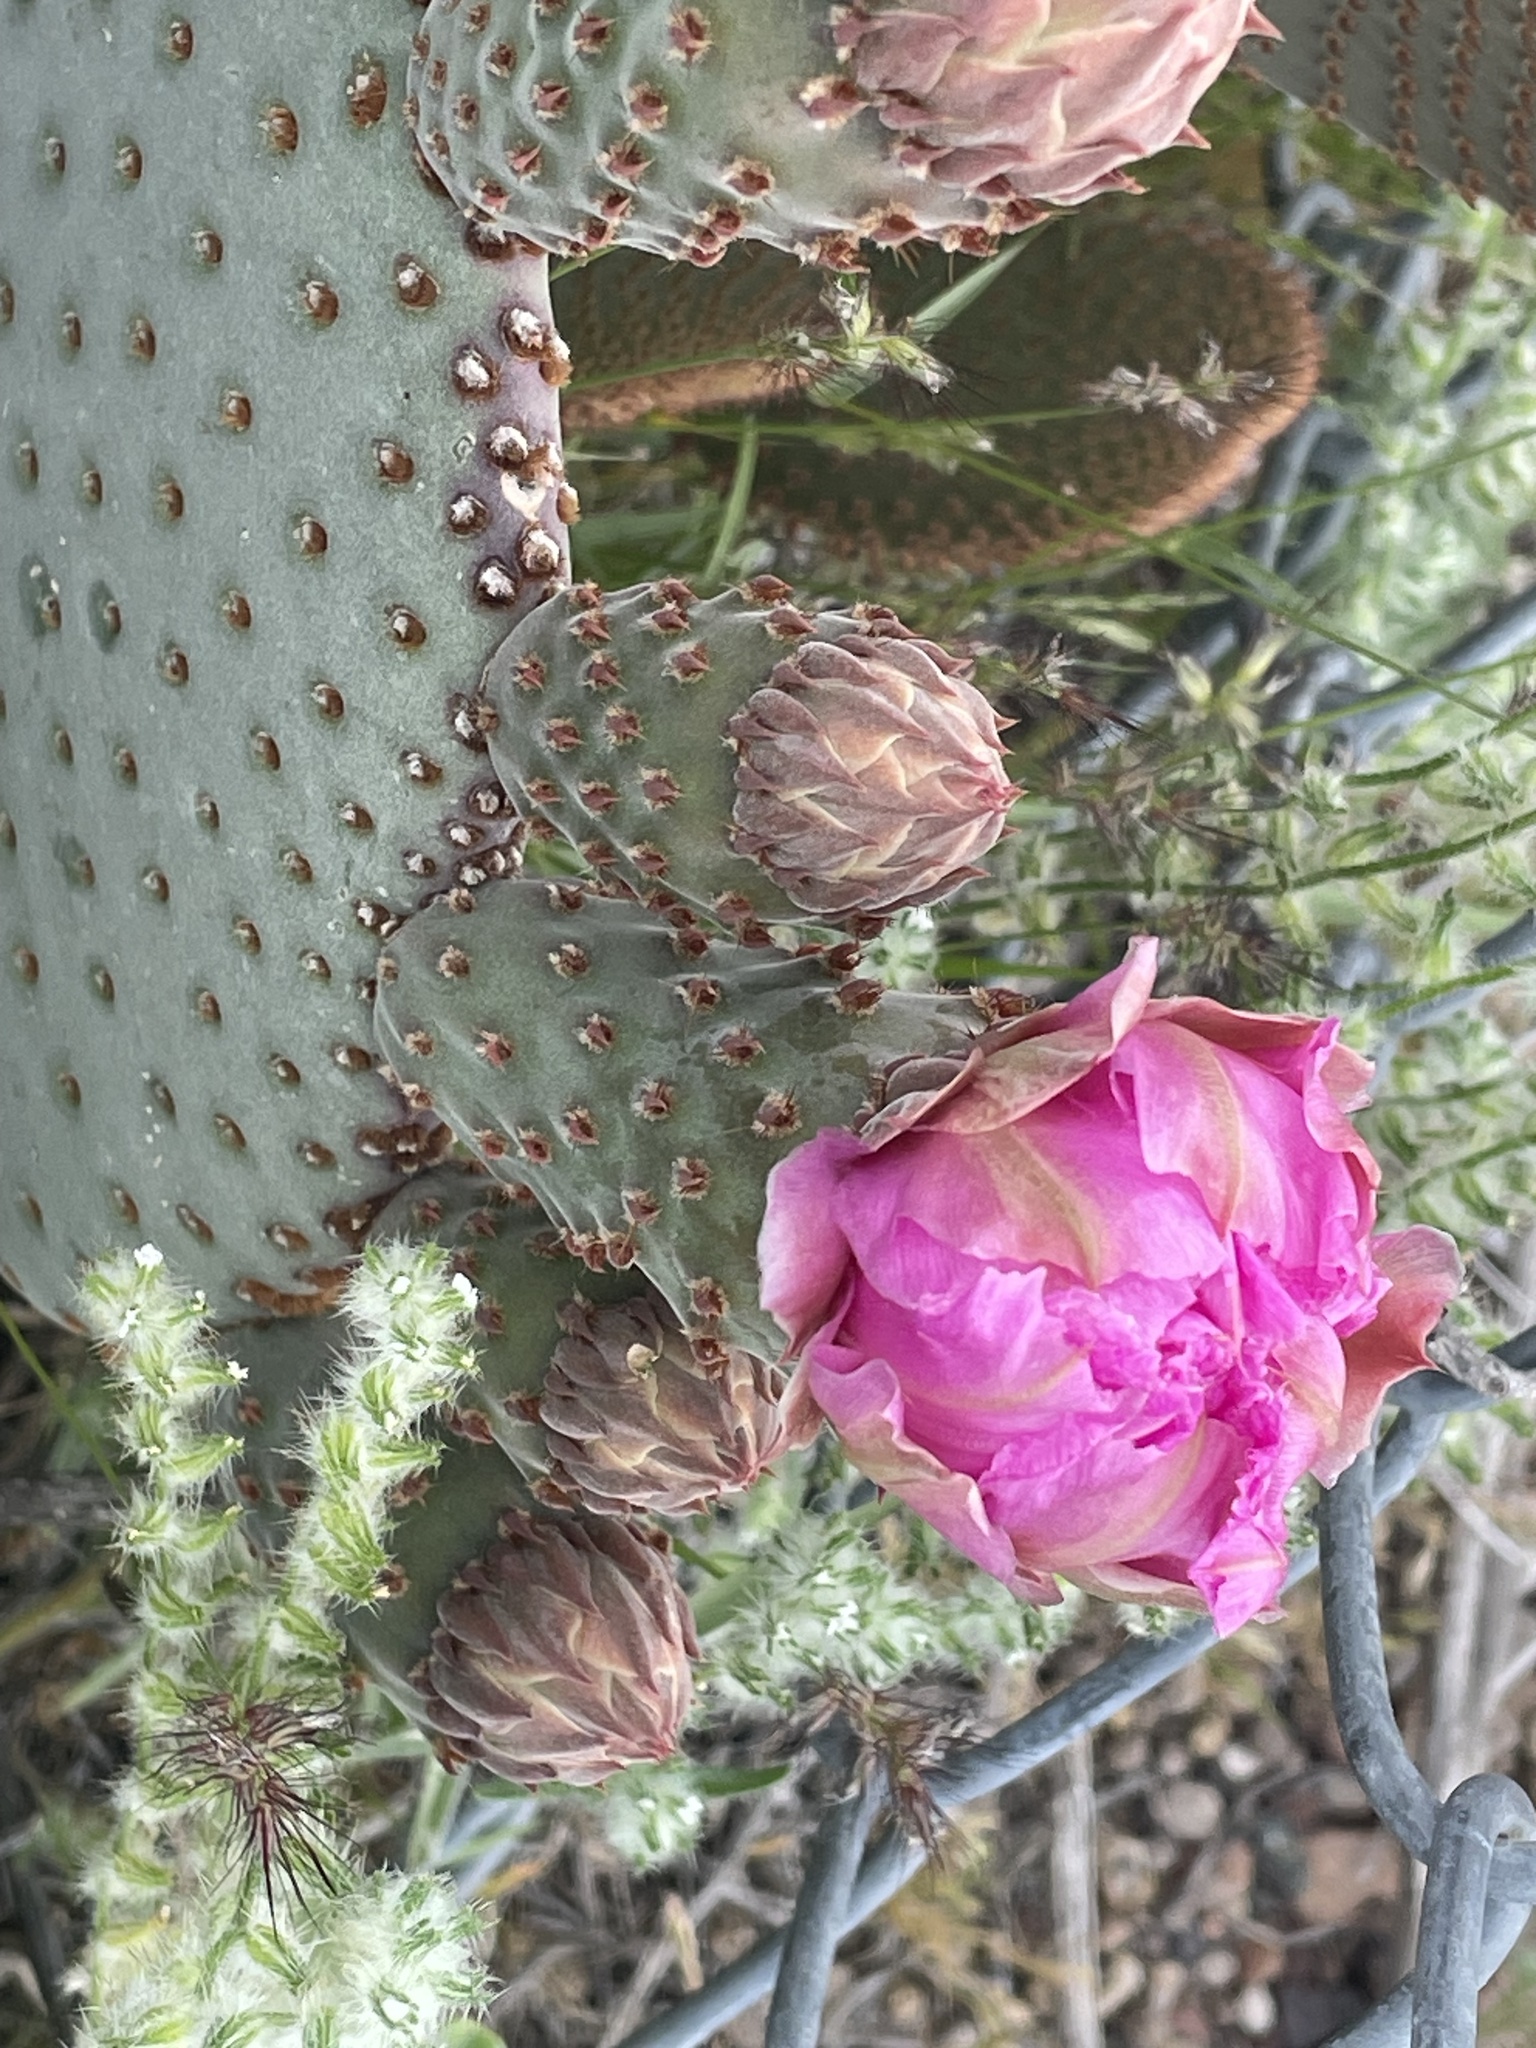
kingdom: Plantae
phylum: Tracheophyta
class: Magnoliopsida
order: Caryophyllales
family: Cactaceae
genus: Opuntia
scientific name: Opuntia basilaris
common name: Beavertail prickly-pear
